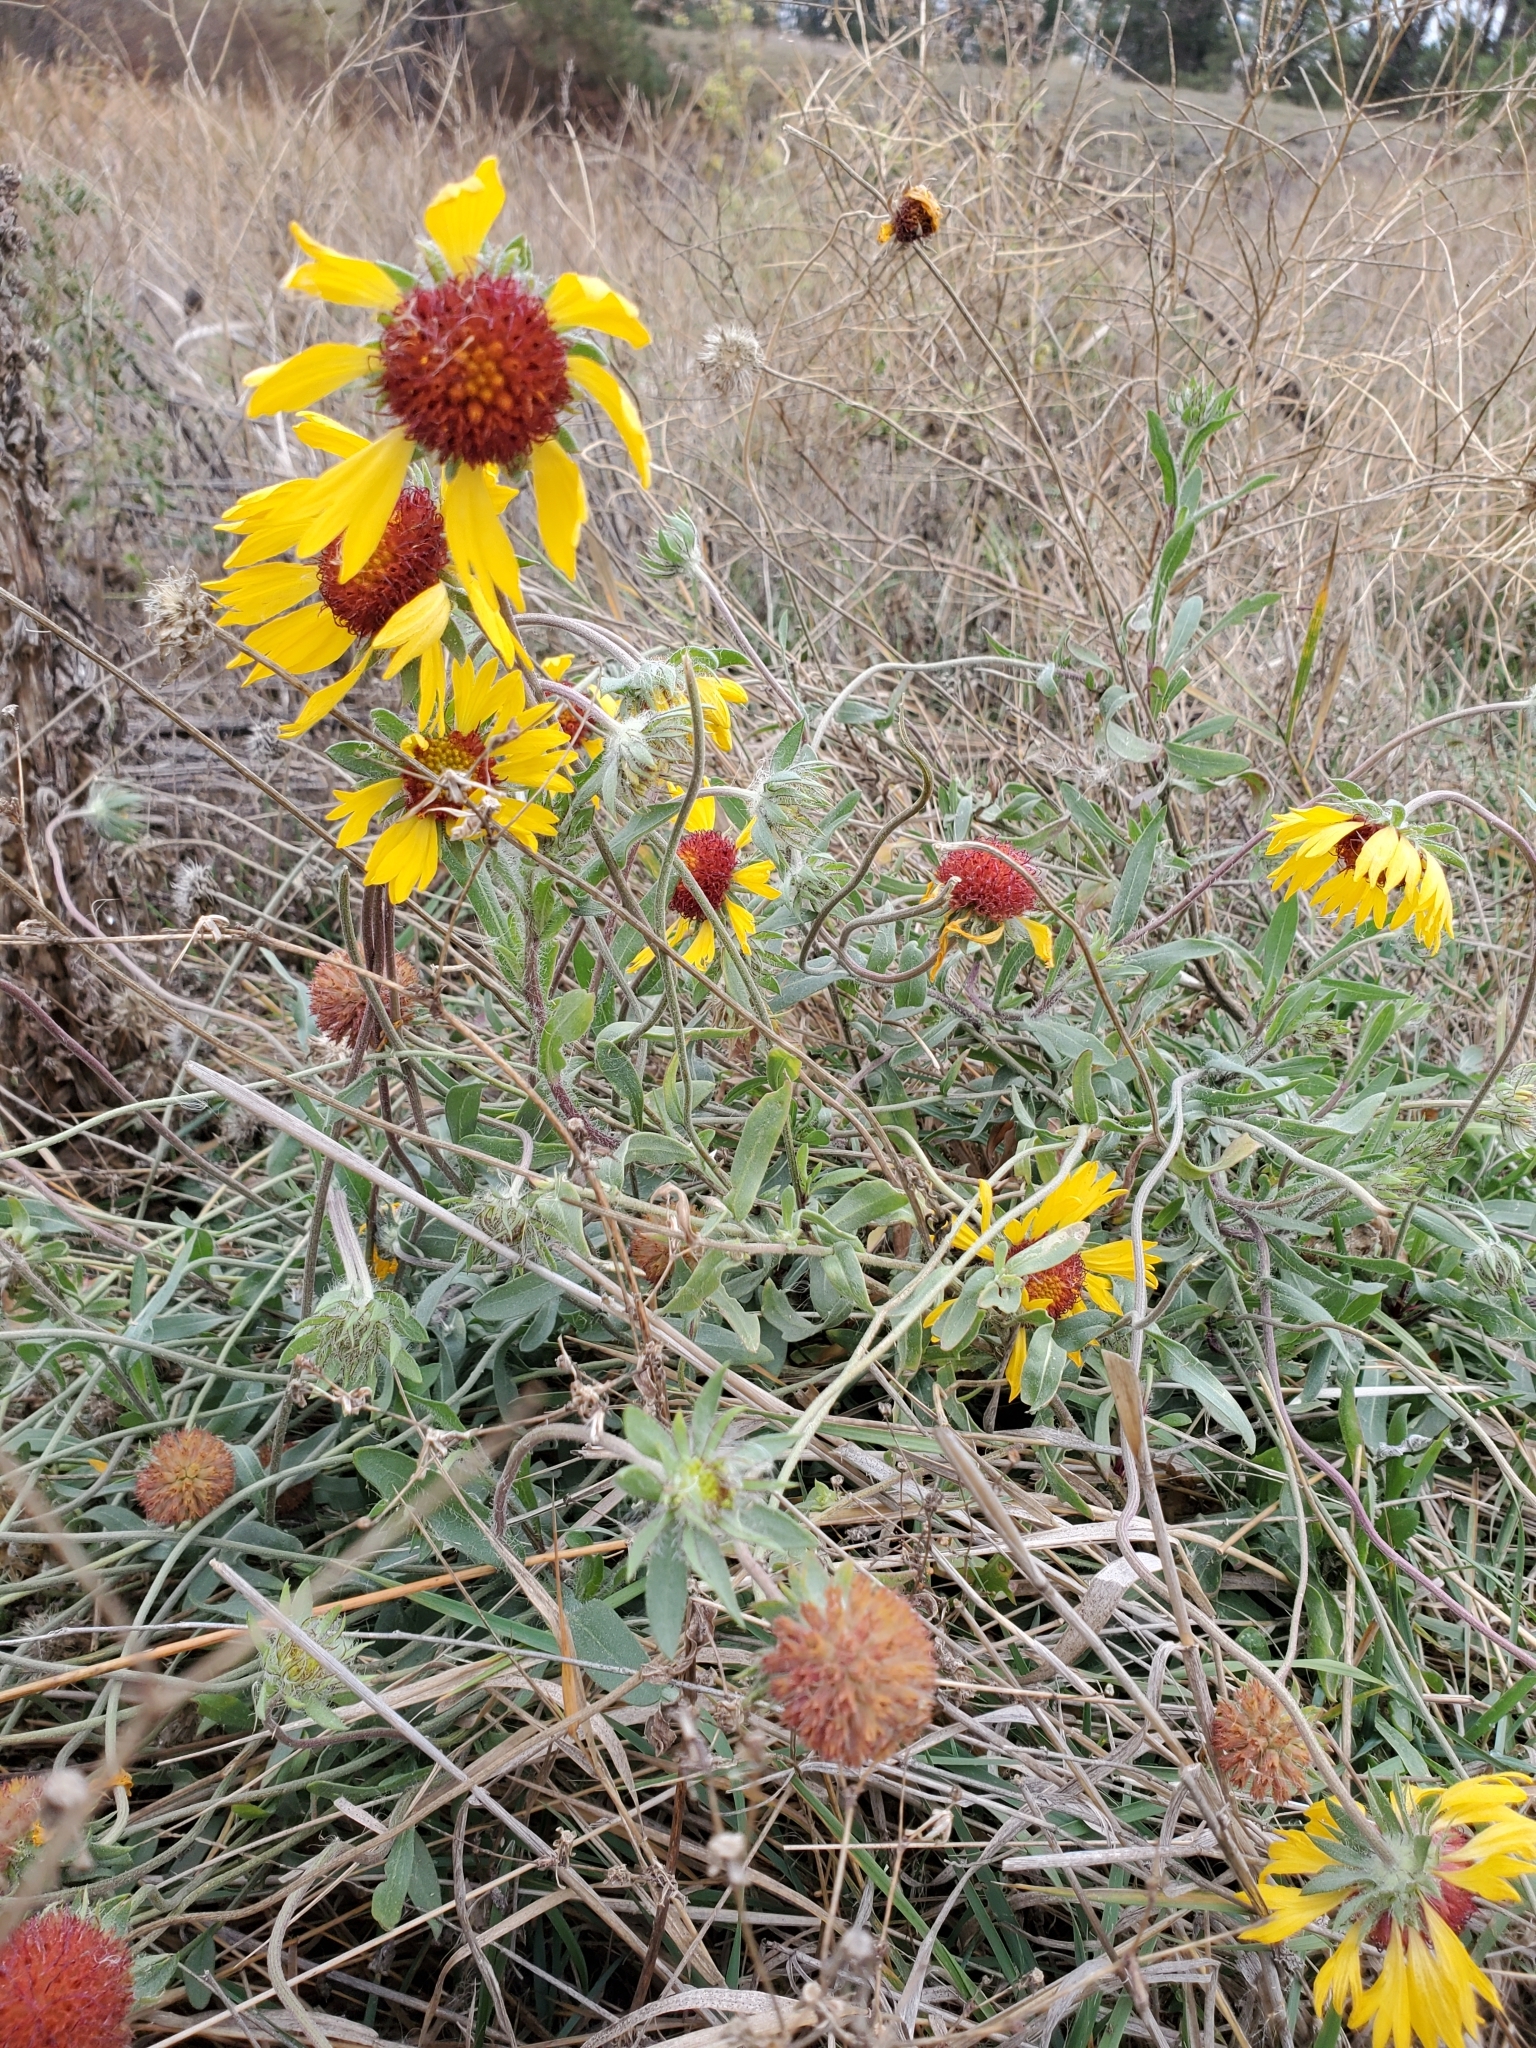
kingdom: Plantae
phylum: Tracheophyta
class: Magnoliopsida
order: Asterales
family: Asteraceae
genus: Gaillardia
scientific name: Gaillardia aristata
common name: Blanket-flower
